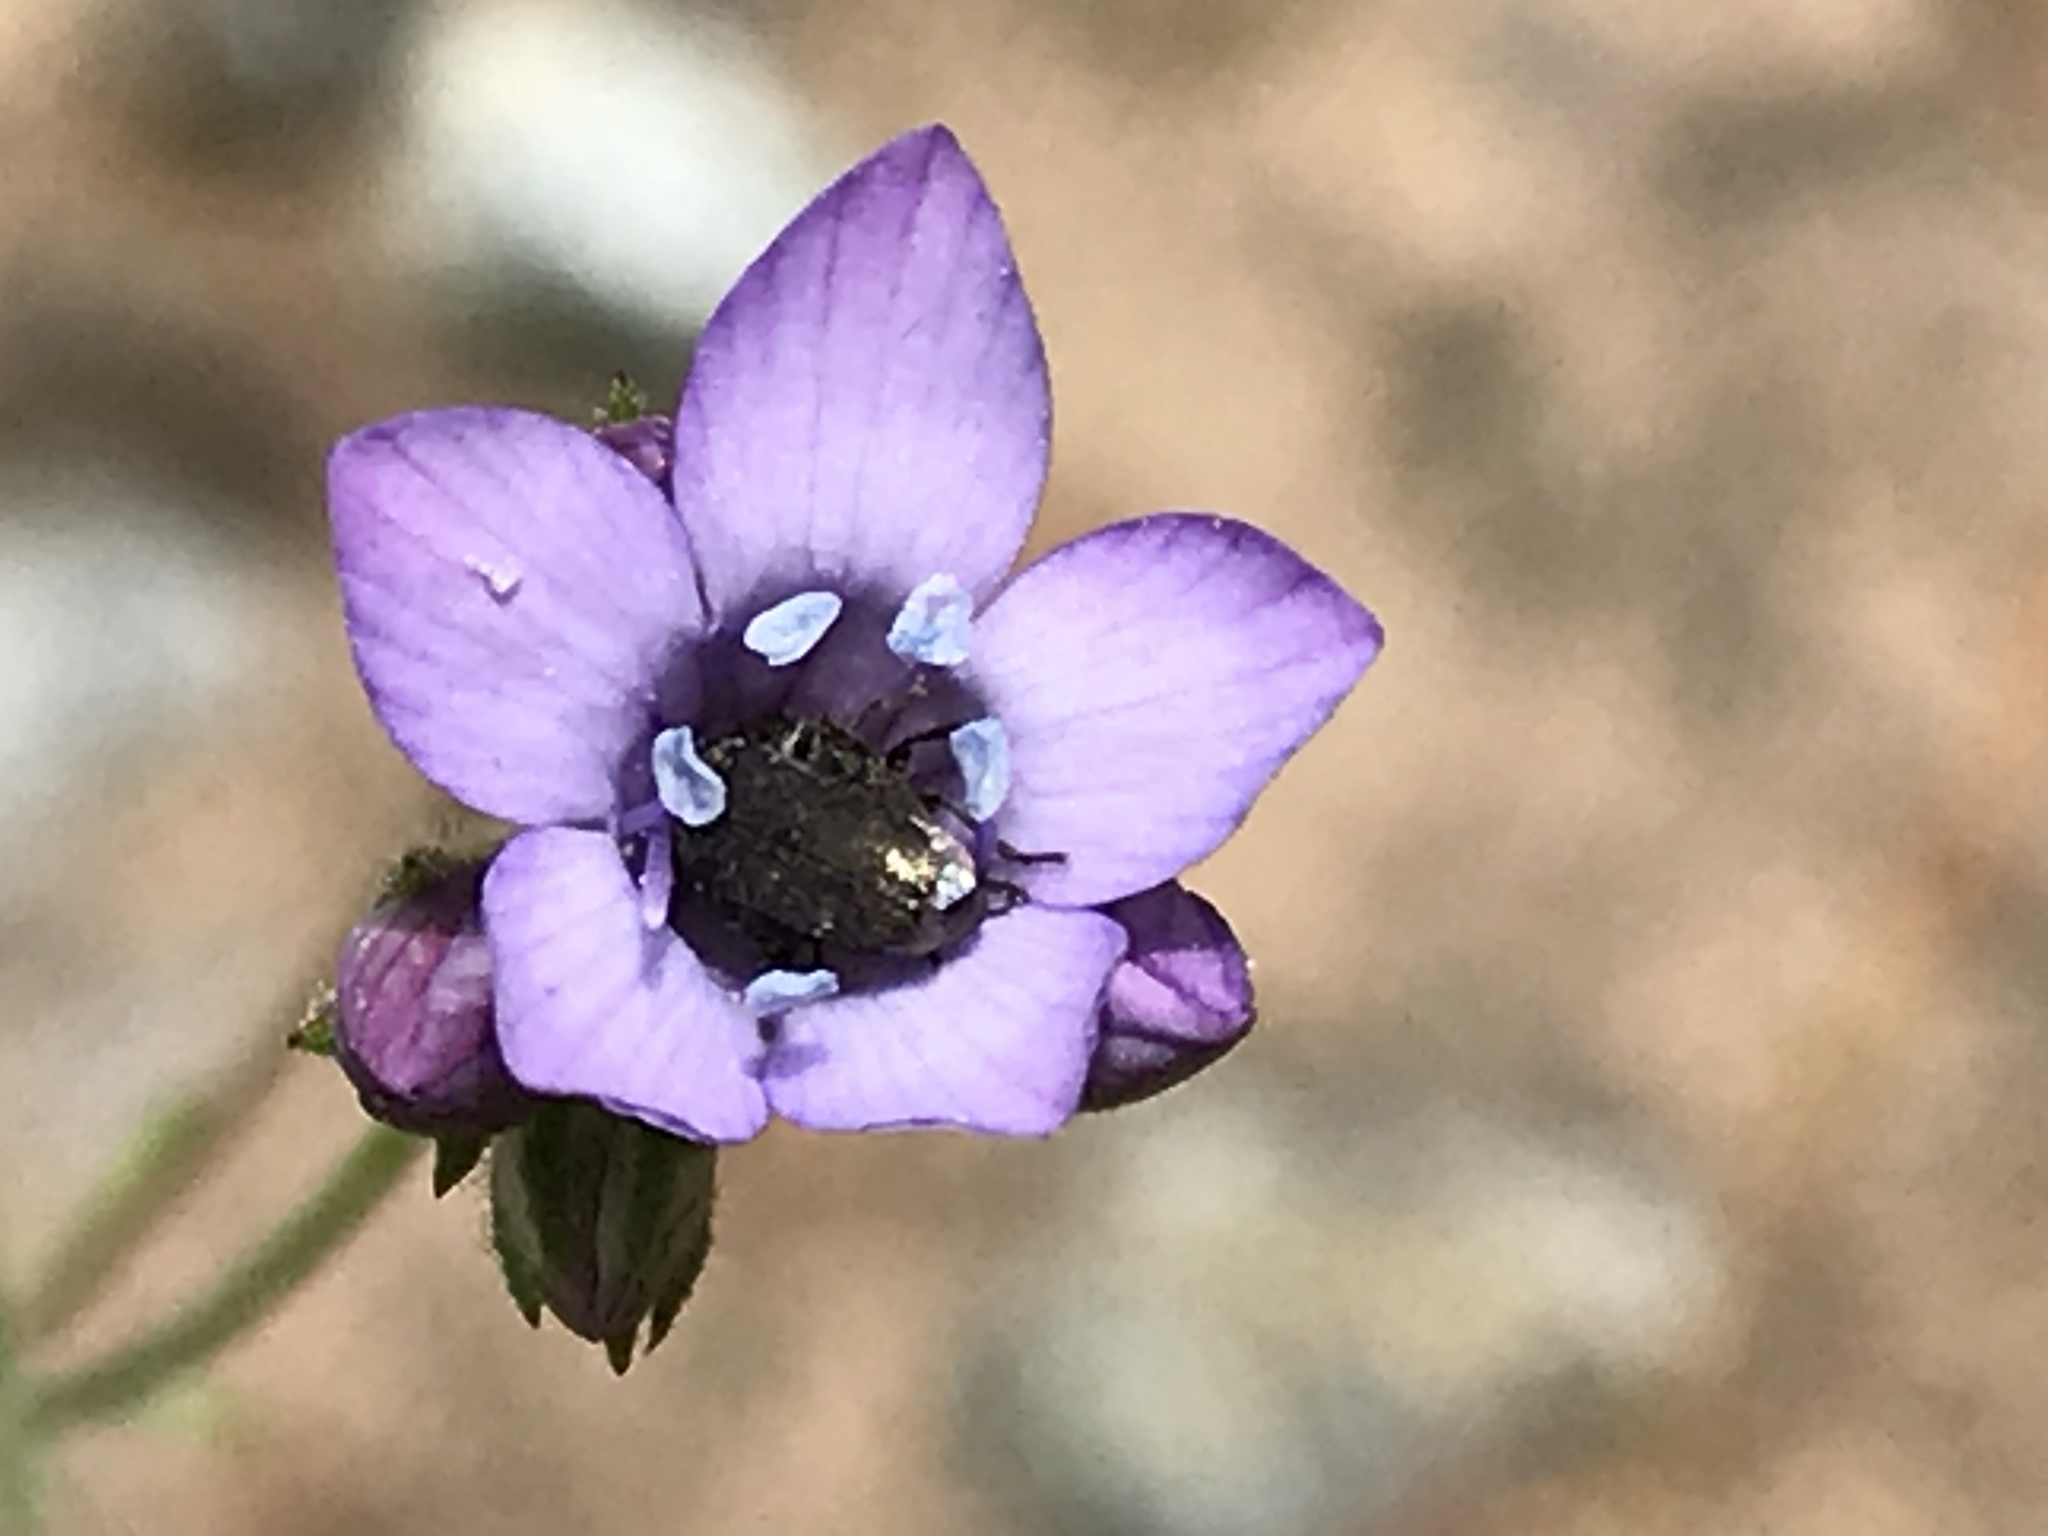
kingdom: Plantae
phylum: Tracheophyta
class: Magnoliopsida
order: Ericales
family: Polemoniaceae
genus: Gilia
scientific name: Gilia achilleifolia
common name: California gily-flower
